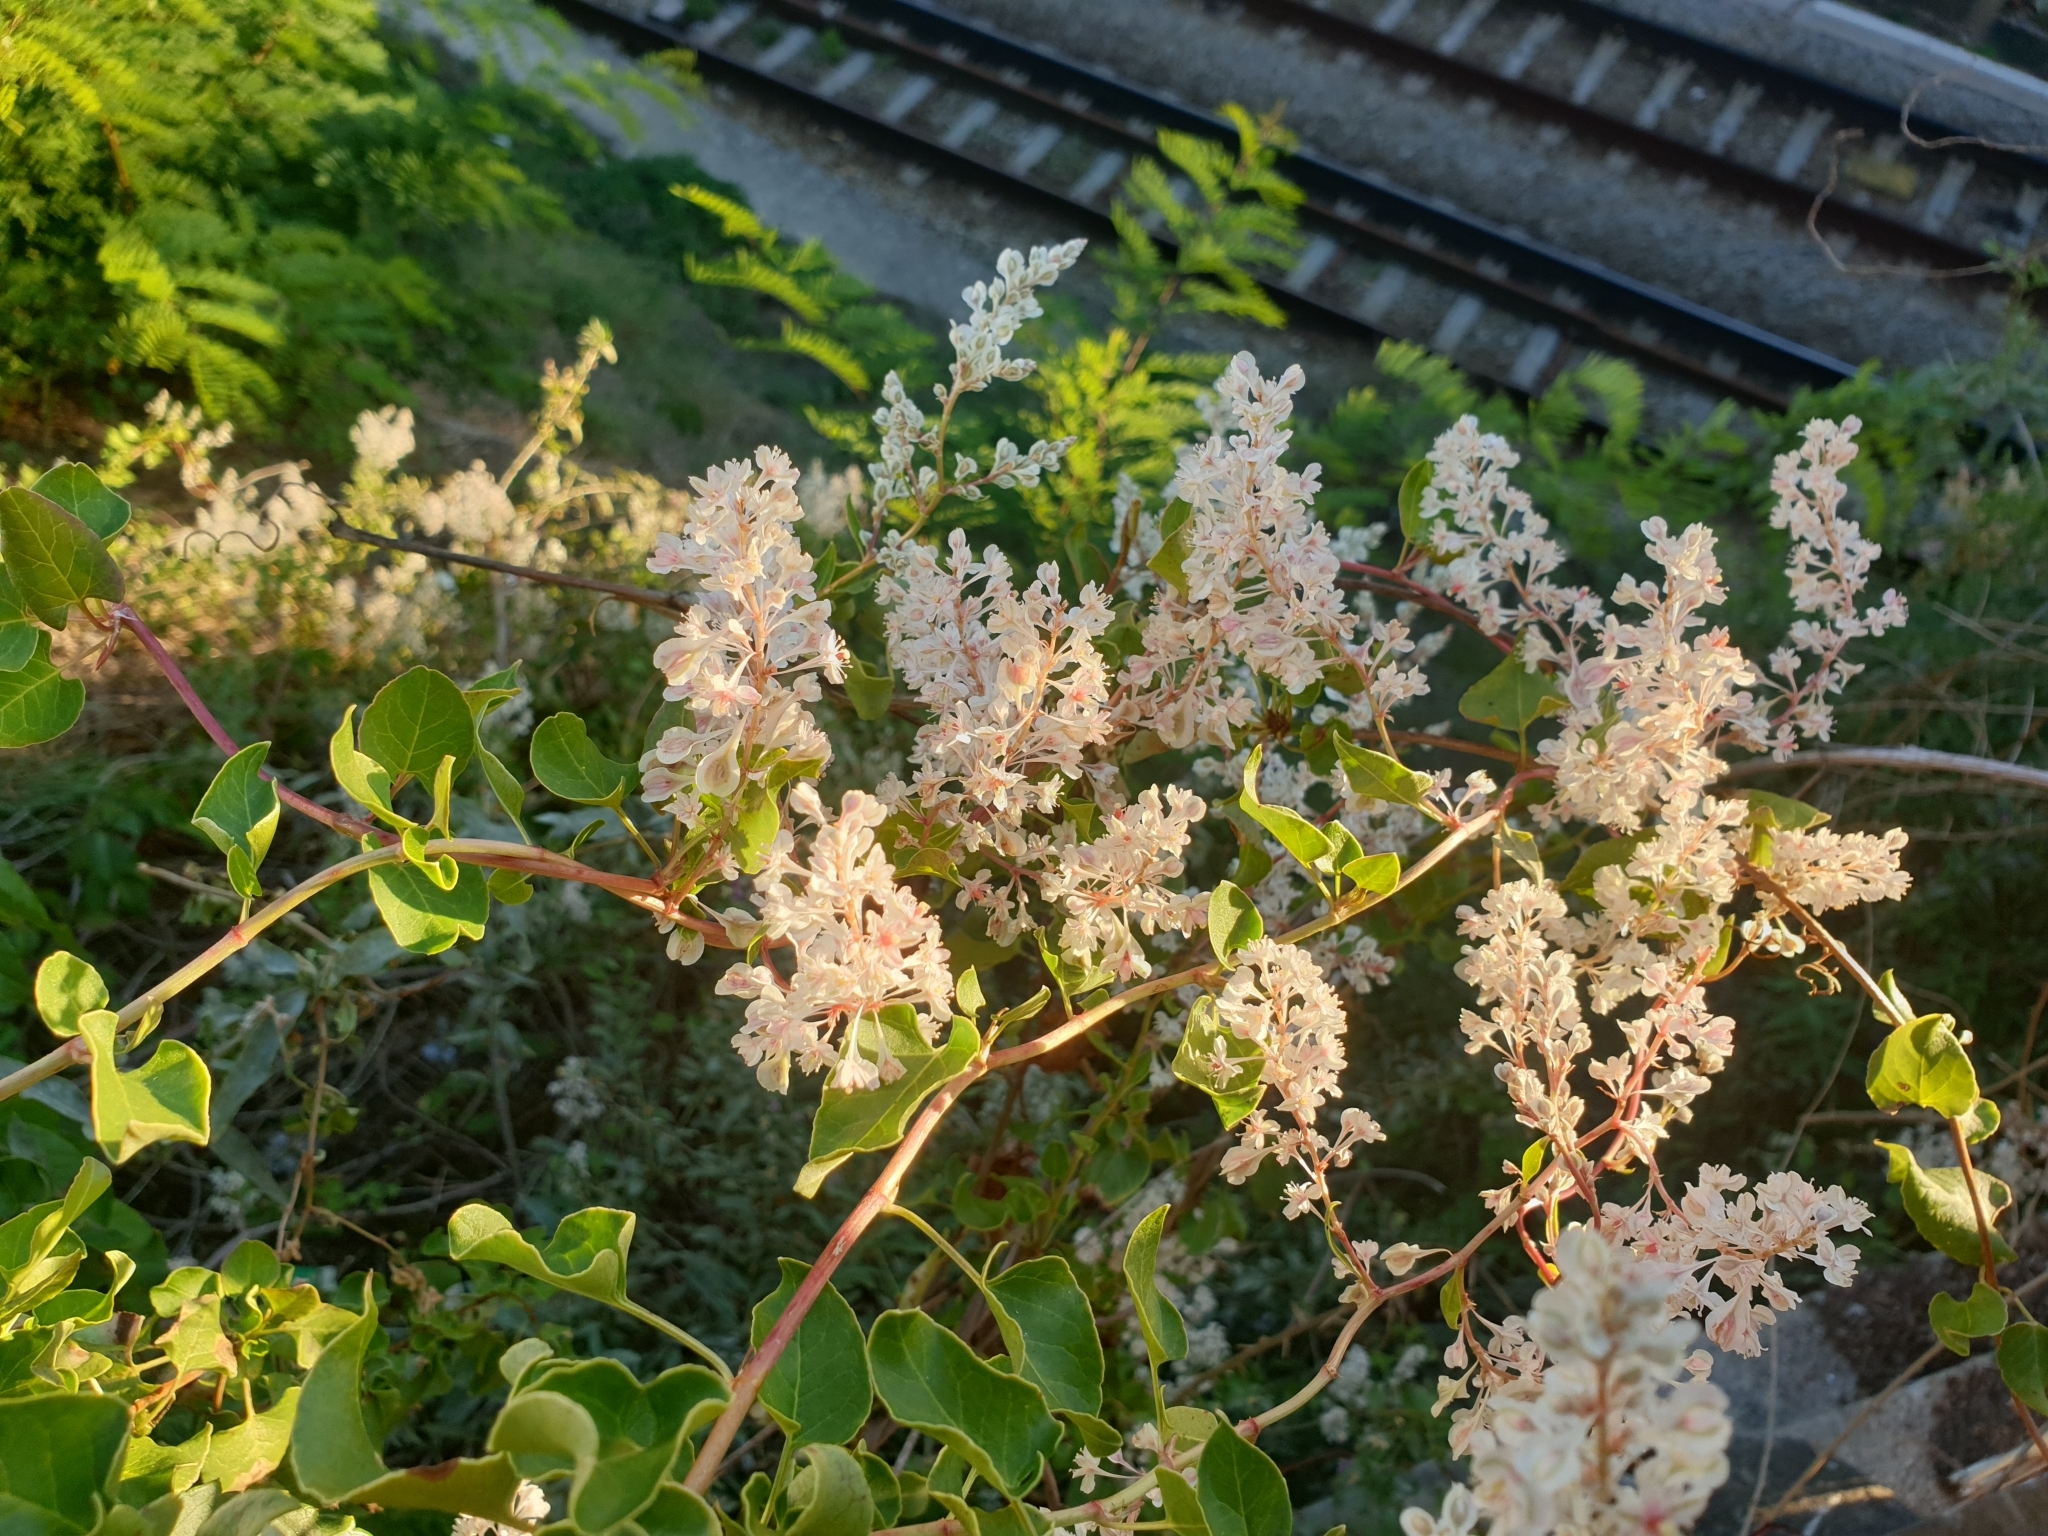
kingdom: Plantae
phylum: Tracheophyta
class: Magnoliopsida
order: Caryophyllales
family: Polygonaceae
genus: Fallopia
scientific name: Fallopia baldschuanica
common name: Russian-vine
